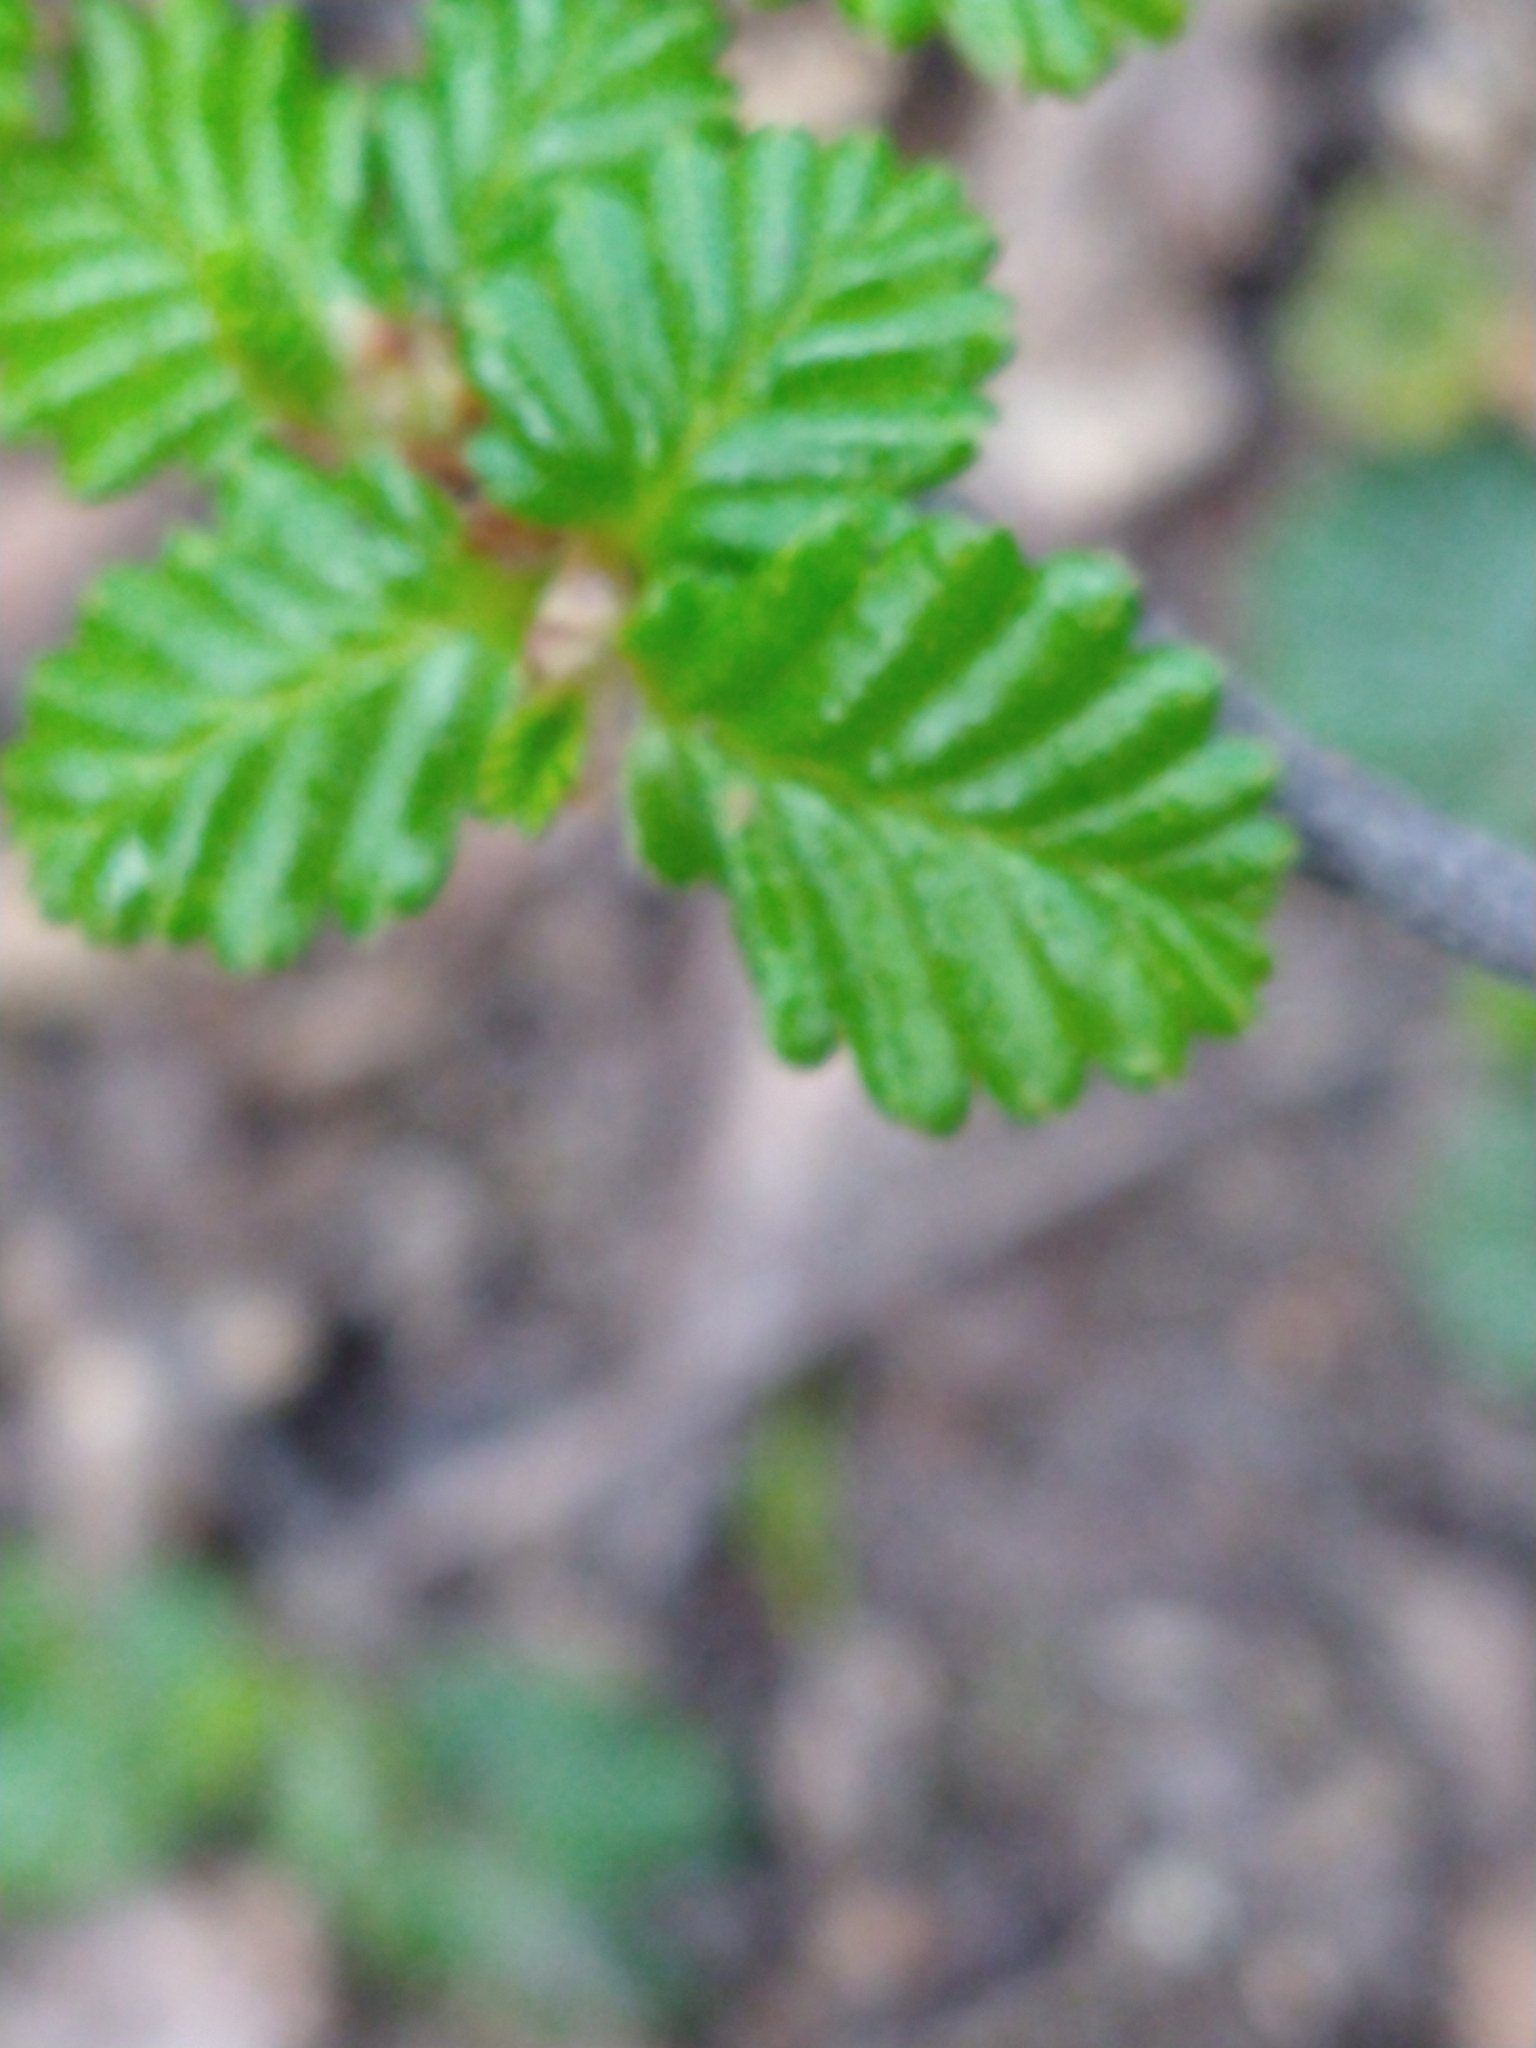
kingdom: Plantae
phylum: Tracheophyta
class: Magnoliopsida
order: Fagales
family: Nothofagaceae
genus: Nothofagus
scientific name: Nothofagus pumilio
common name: Lenga beech
